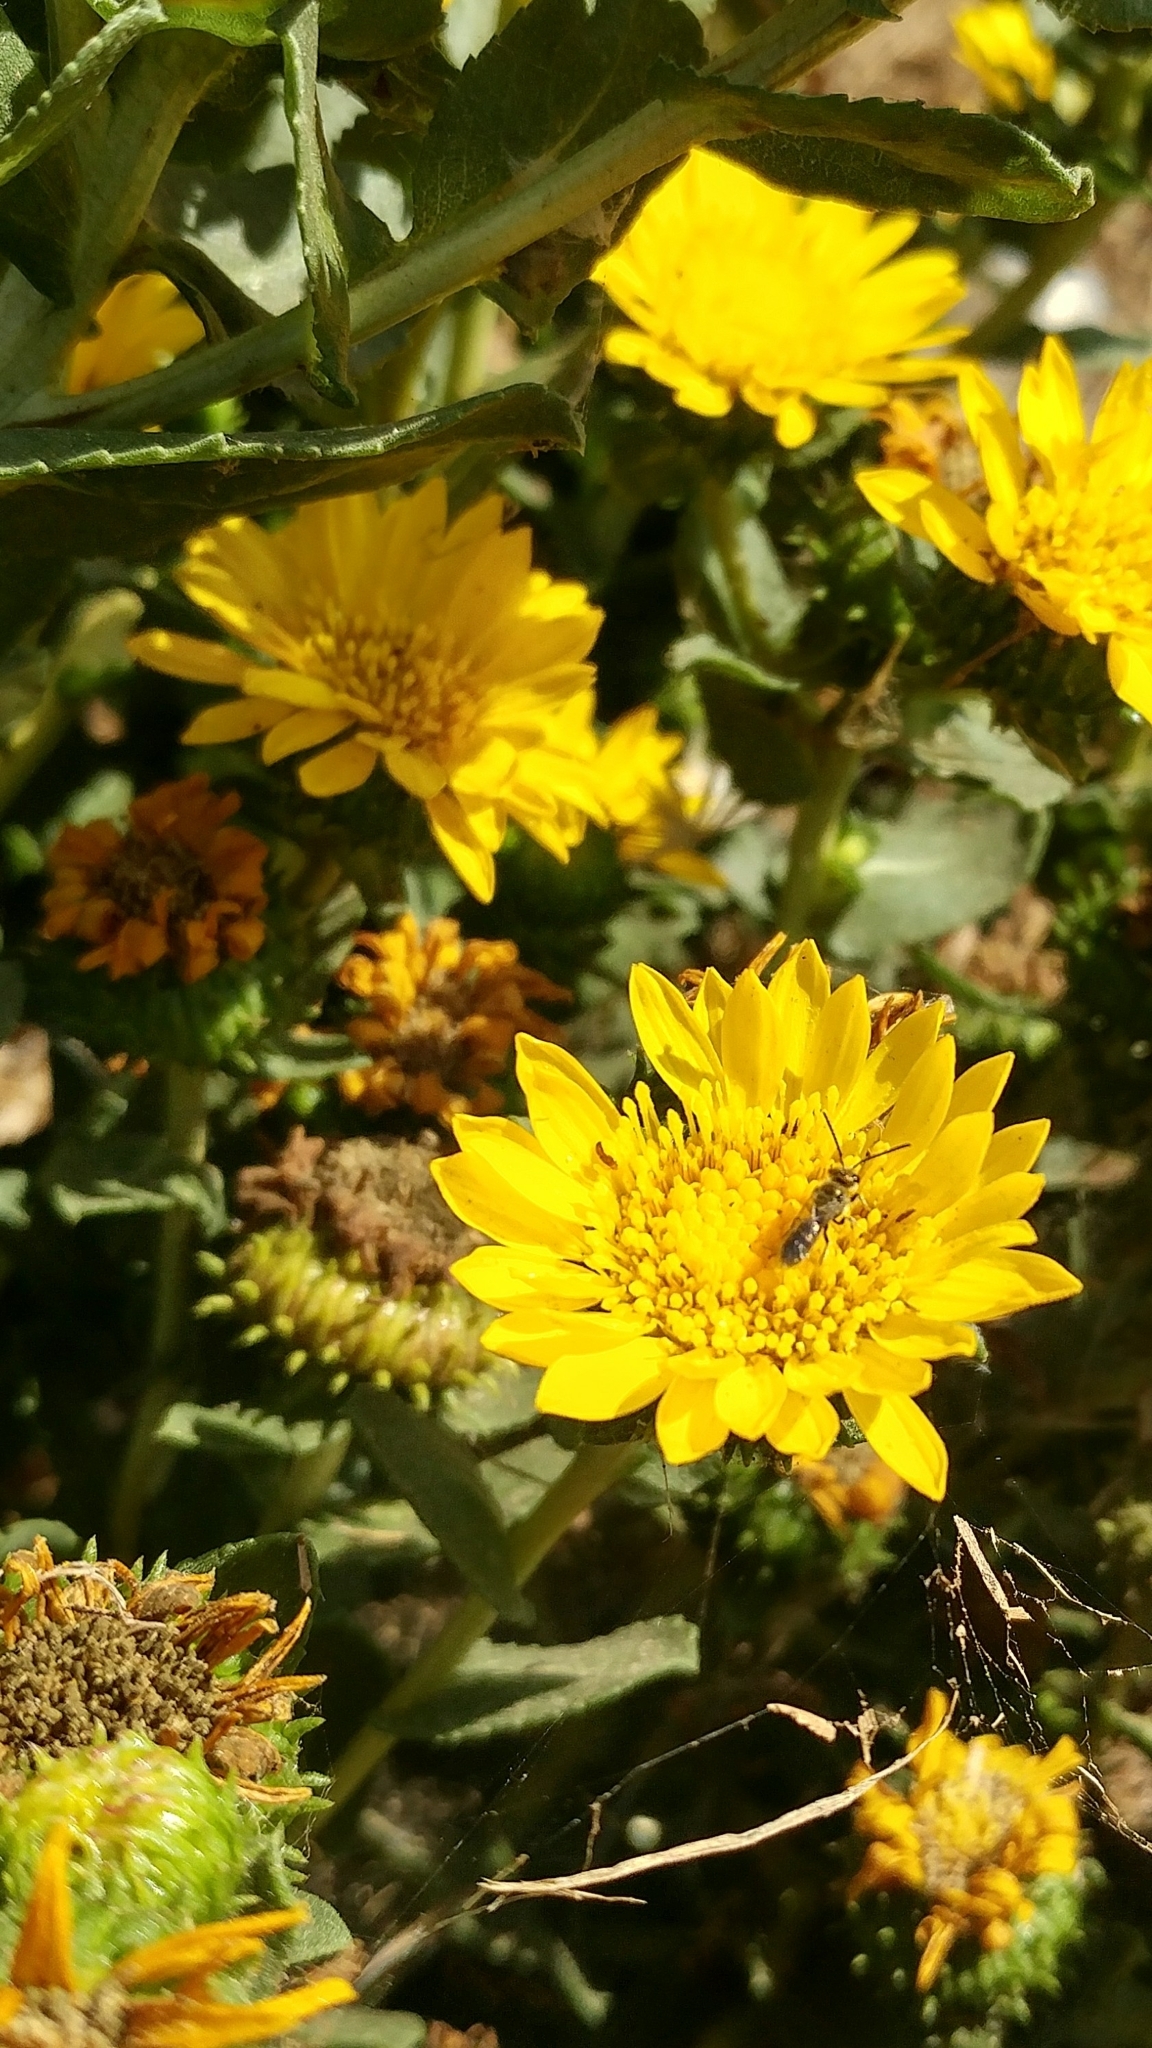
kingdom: Plantae
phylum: Tracheophyta
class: Magnoliopsida
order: Asterales
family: Asteraceae
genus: Grindelia
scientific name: Grindelia hirsutula
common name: Hairy gumweed
